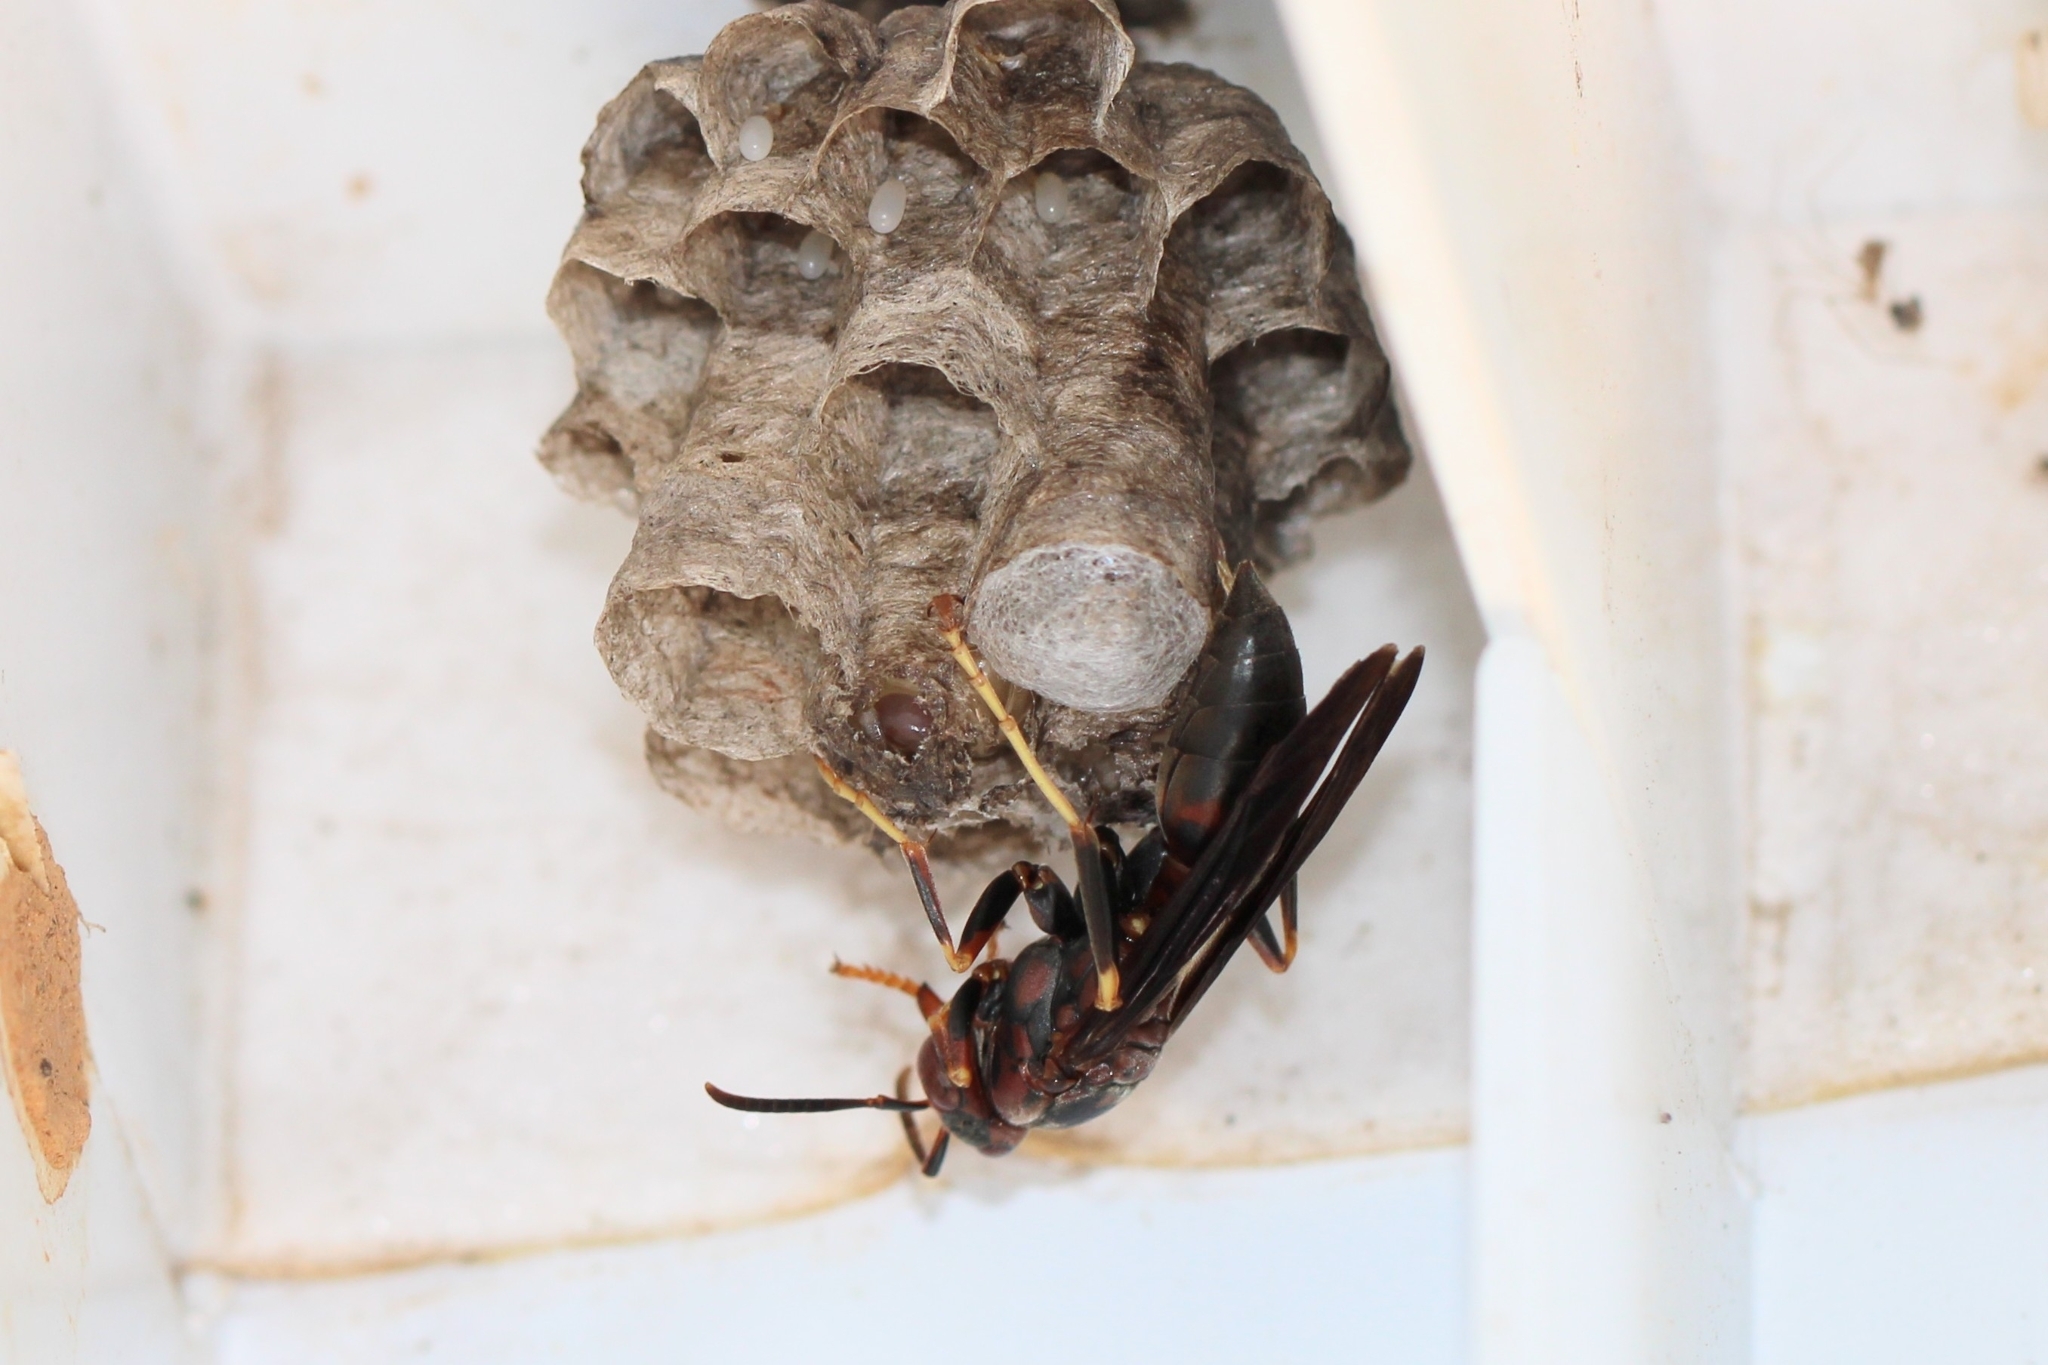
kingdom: Animalia
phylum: Arthropoda
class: Insecta
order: Hymenoptera
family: Eumenidae
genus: Polistes
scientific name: Polistes metricus
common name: Metric paper wasp
